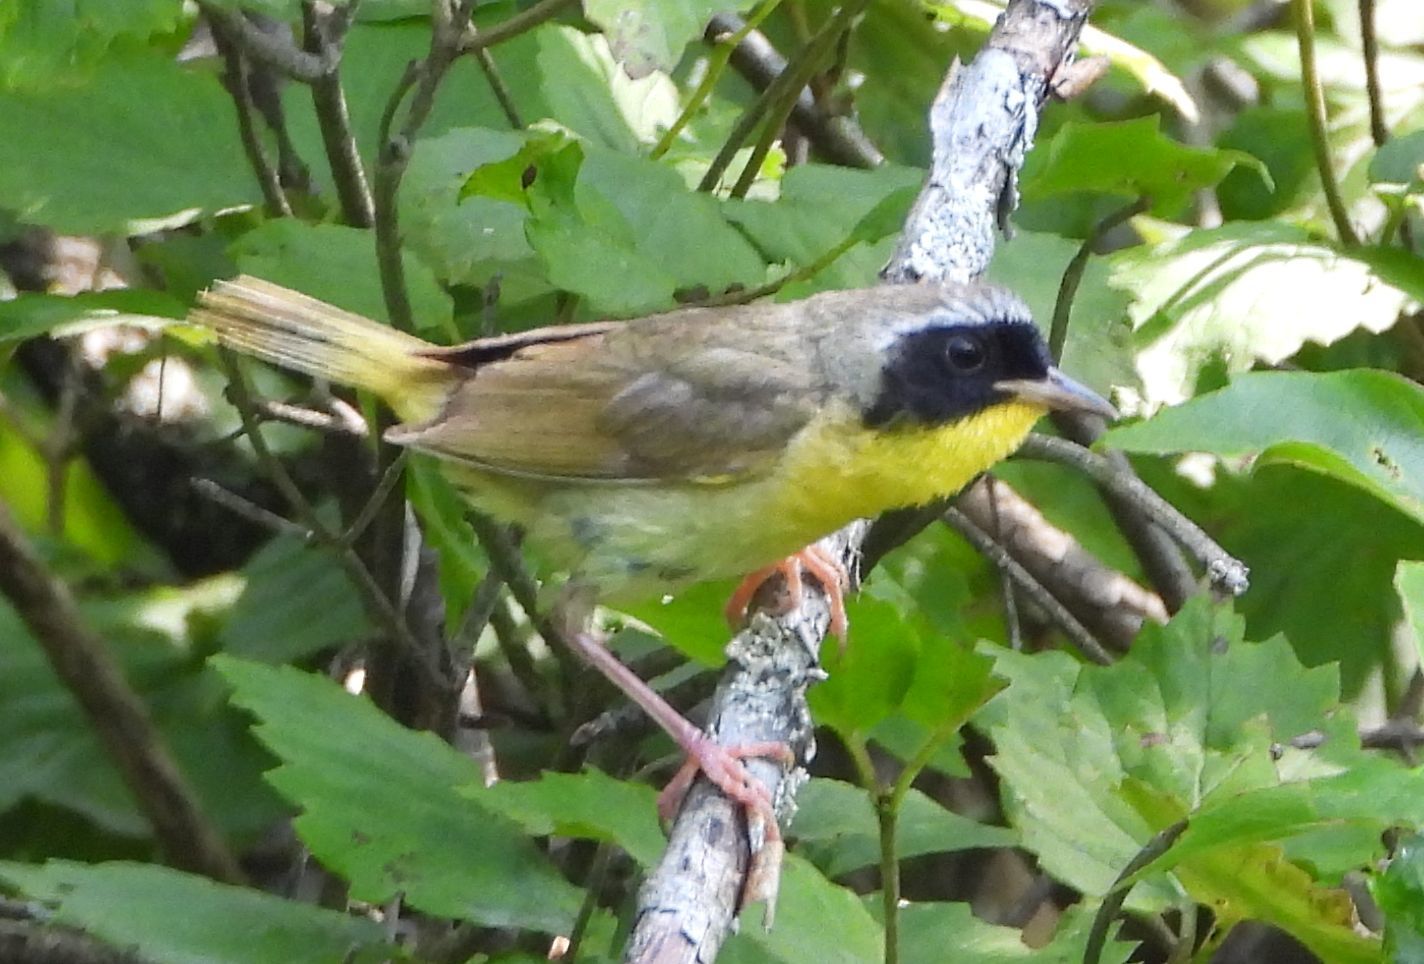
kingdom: Animalia
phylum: Chordata
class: Aves
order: Passeriformes
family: Parulidae
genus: Geothlypis
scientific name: Geothlypis trichas
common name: Common yellowthroat
